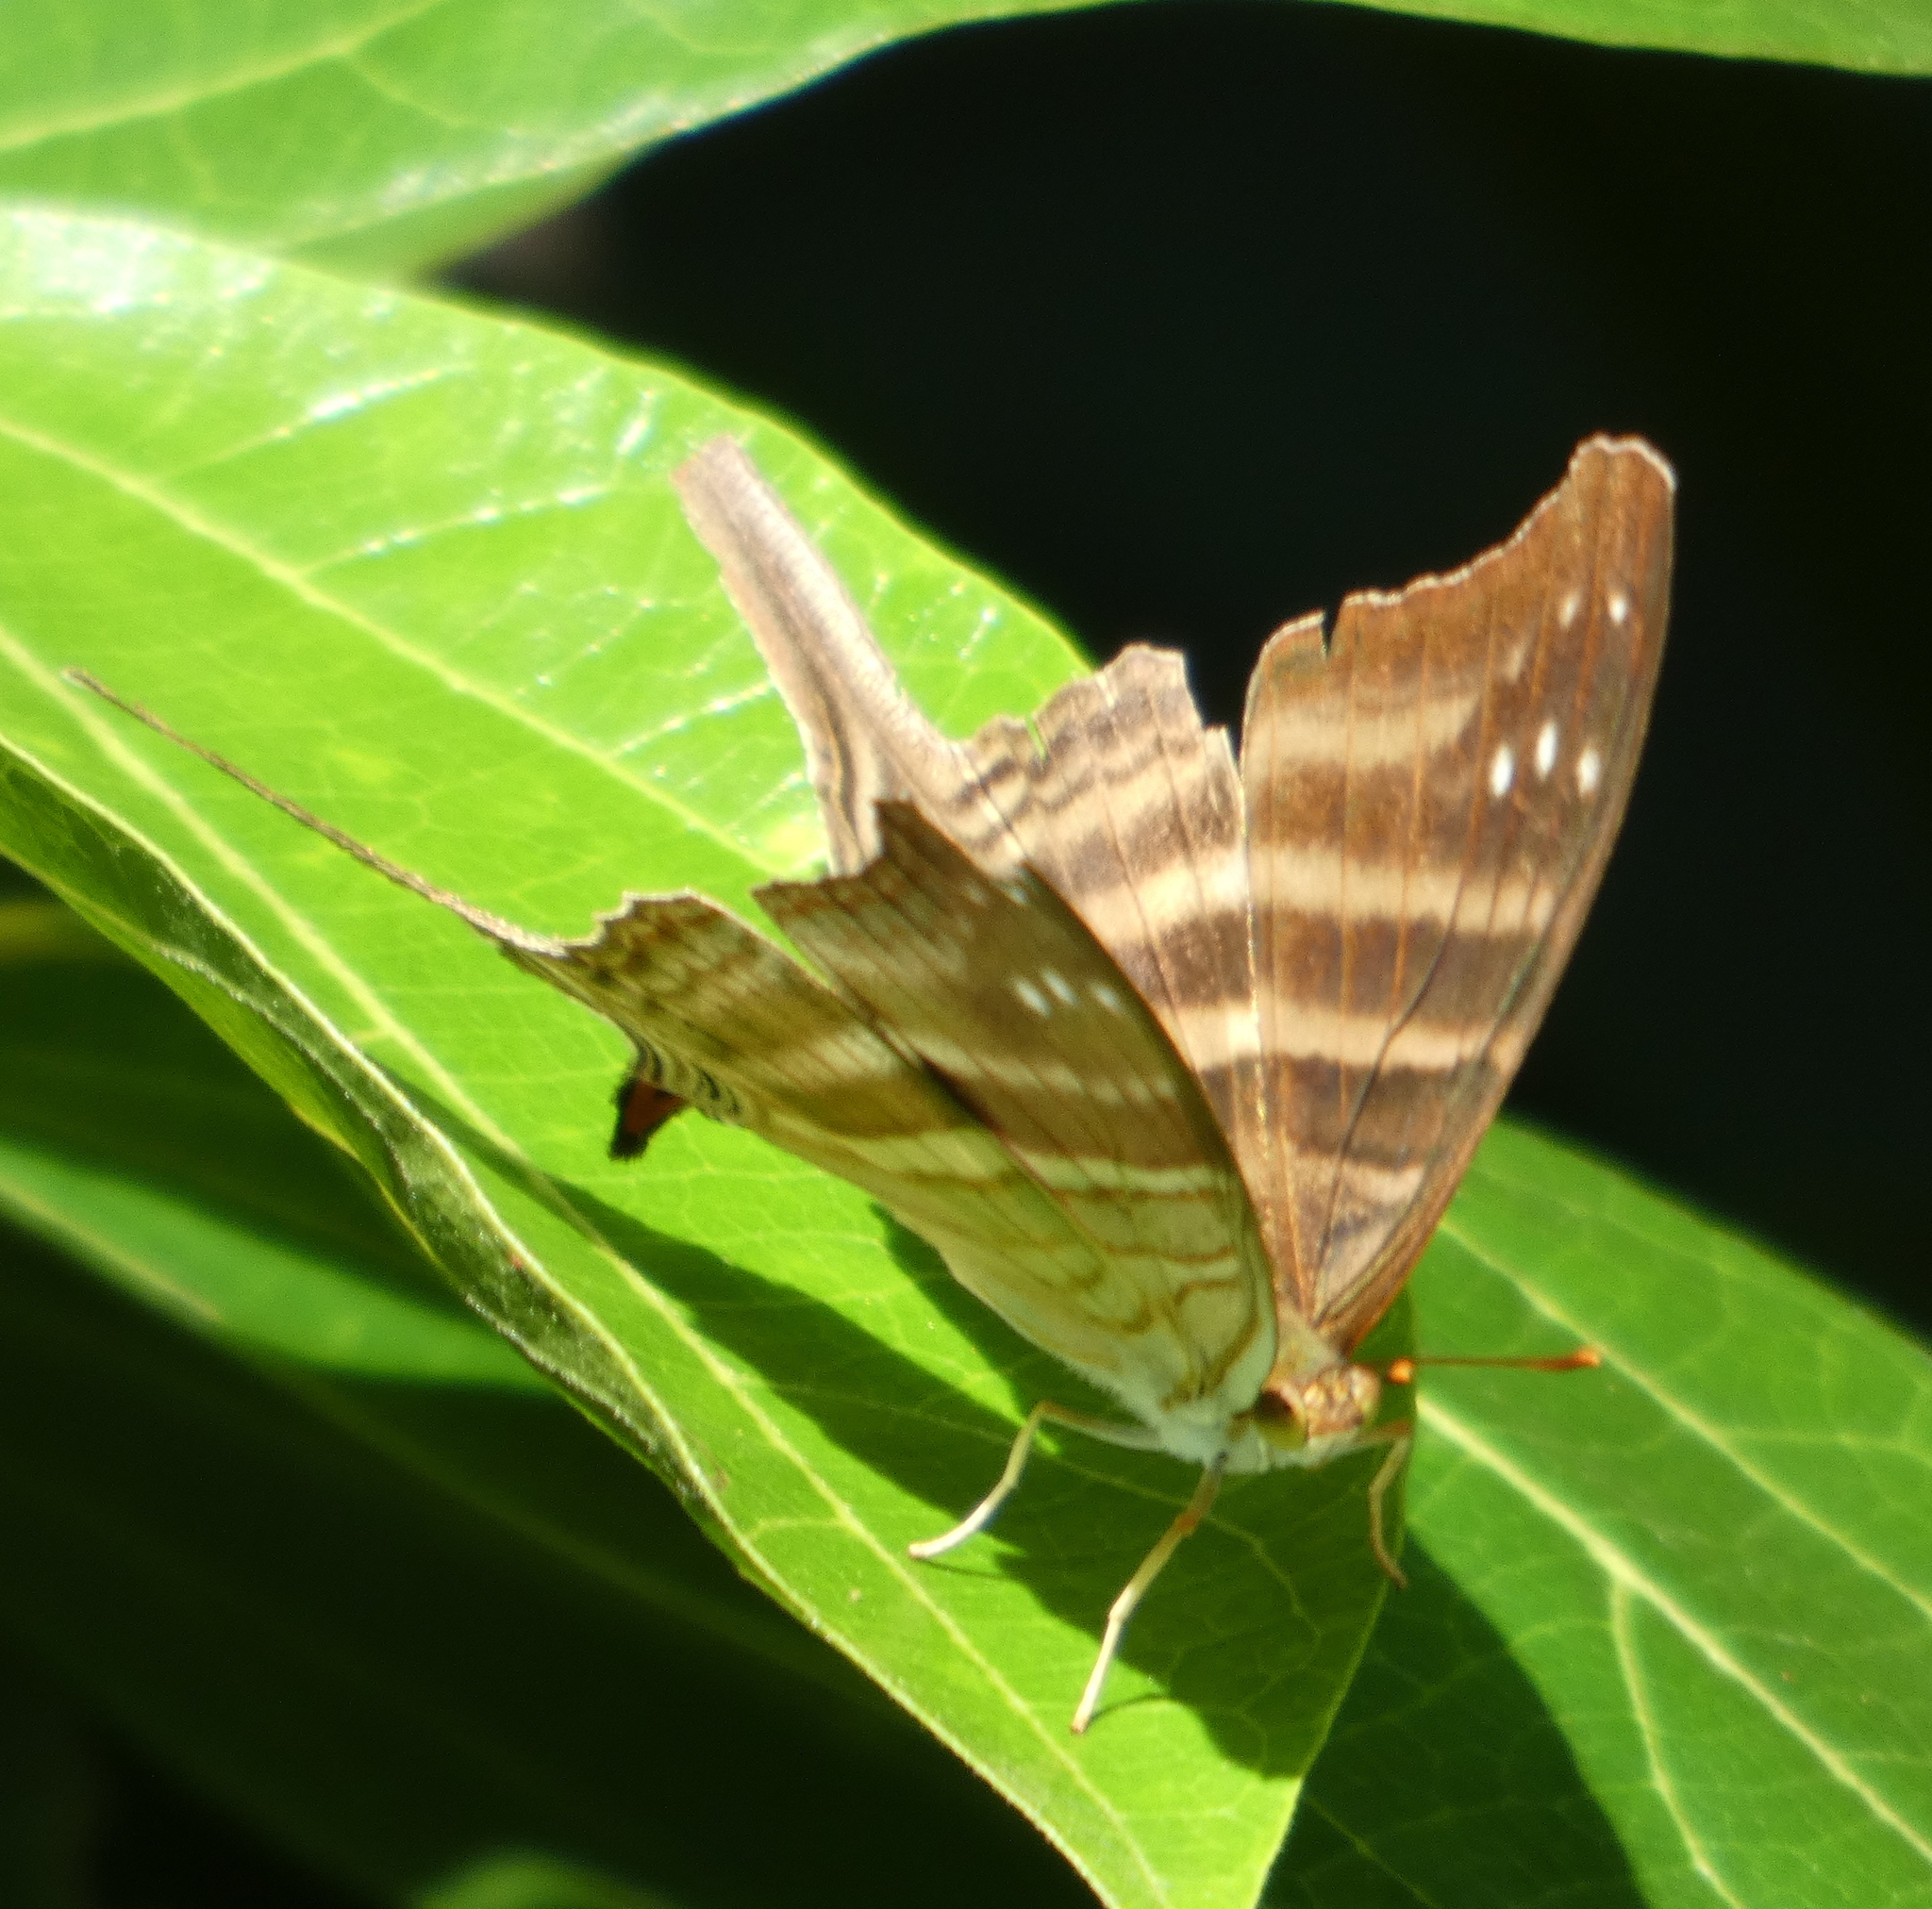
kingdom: Animalia
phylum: Arthropoda
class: Insecta
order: Lepidoptera
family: Nymphalidae
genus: Marpesia
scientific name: Marpesia chiron
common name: Many-banded daggerwing
